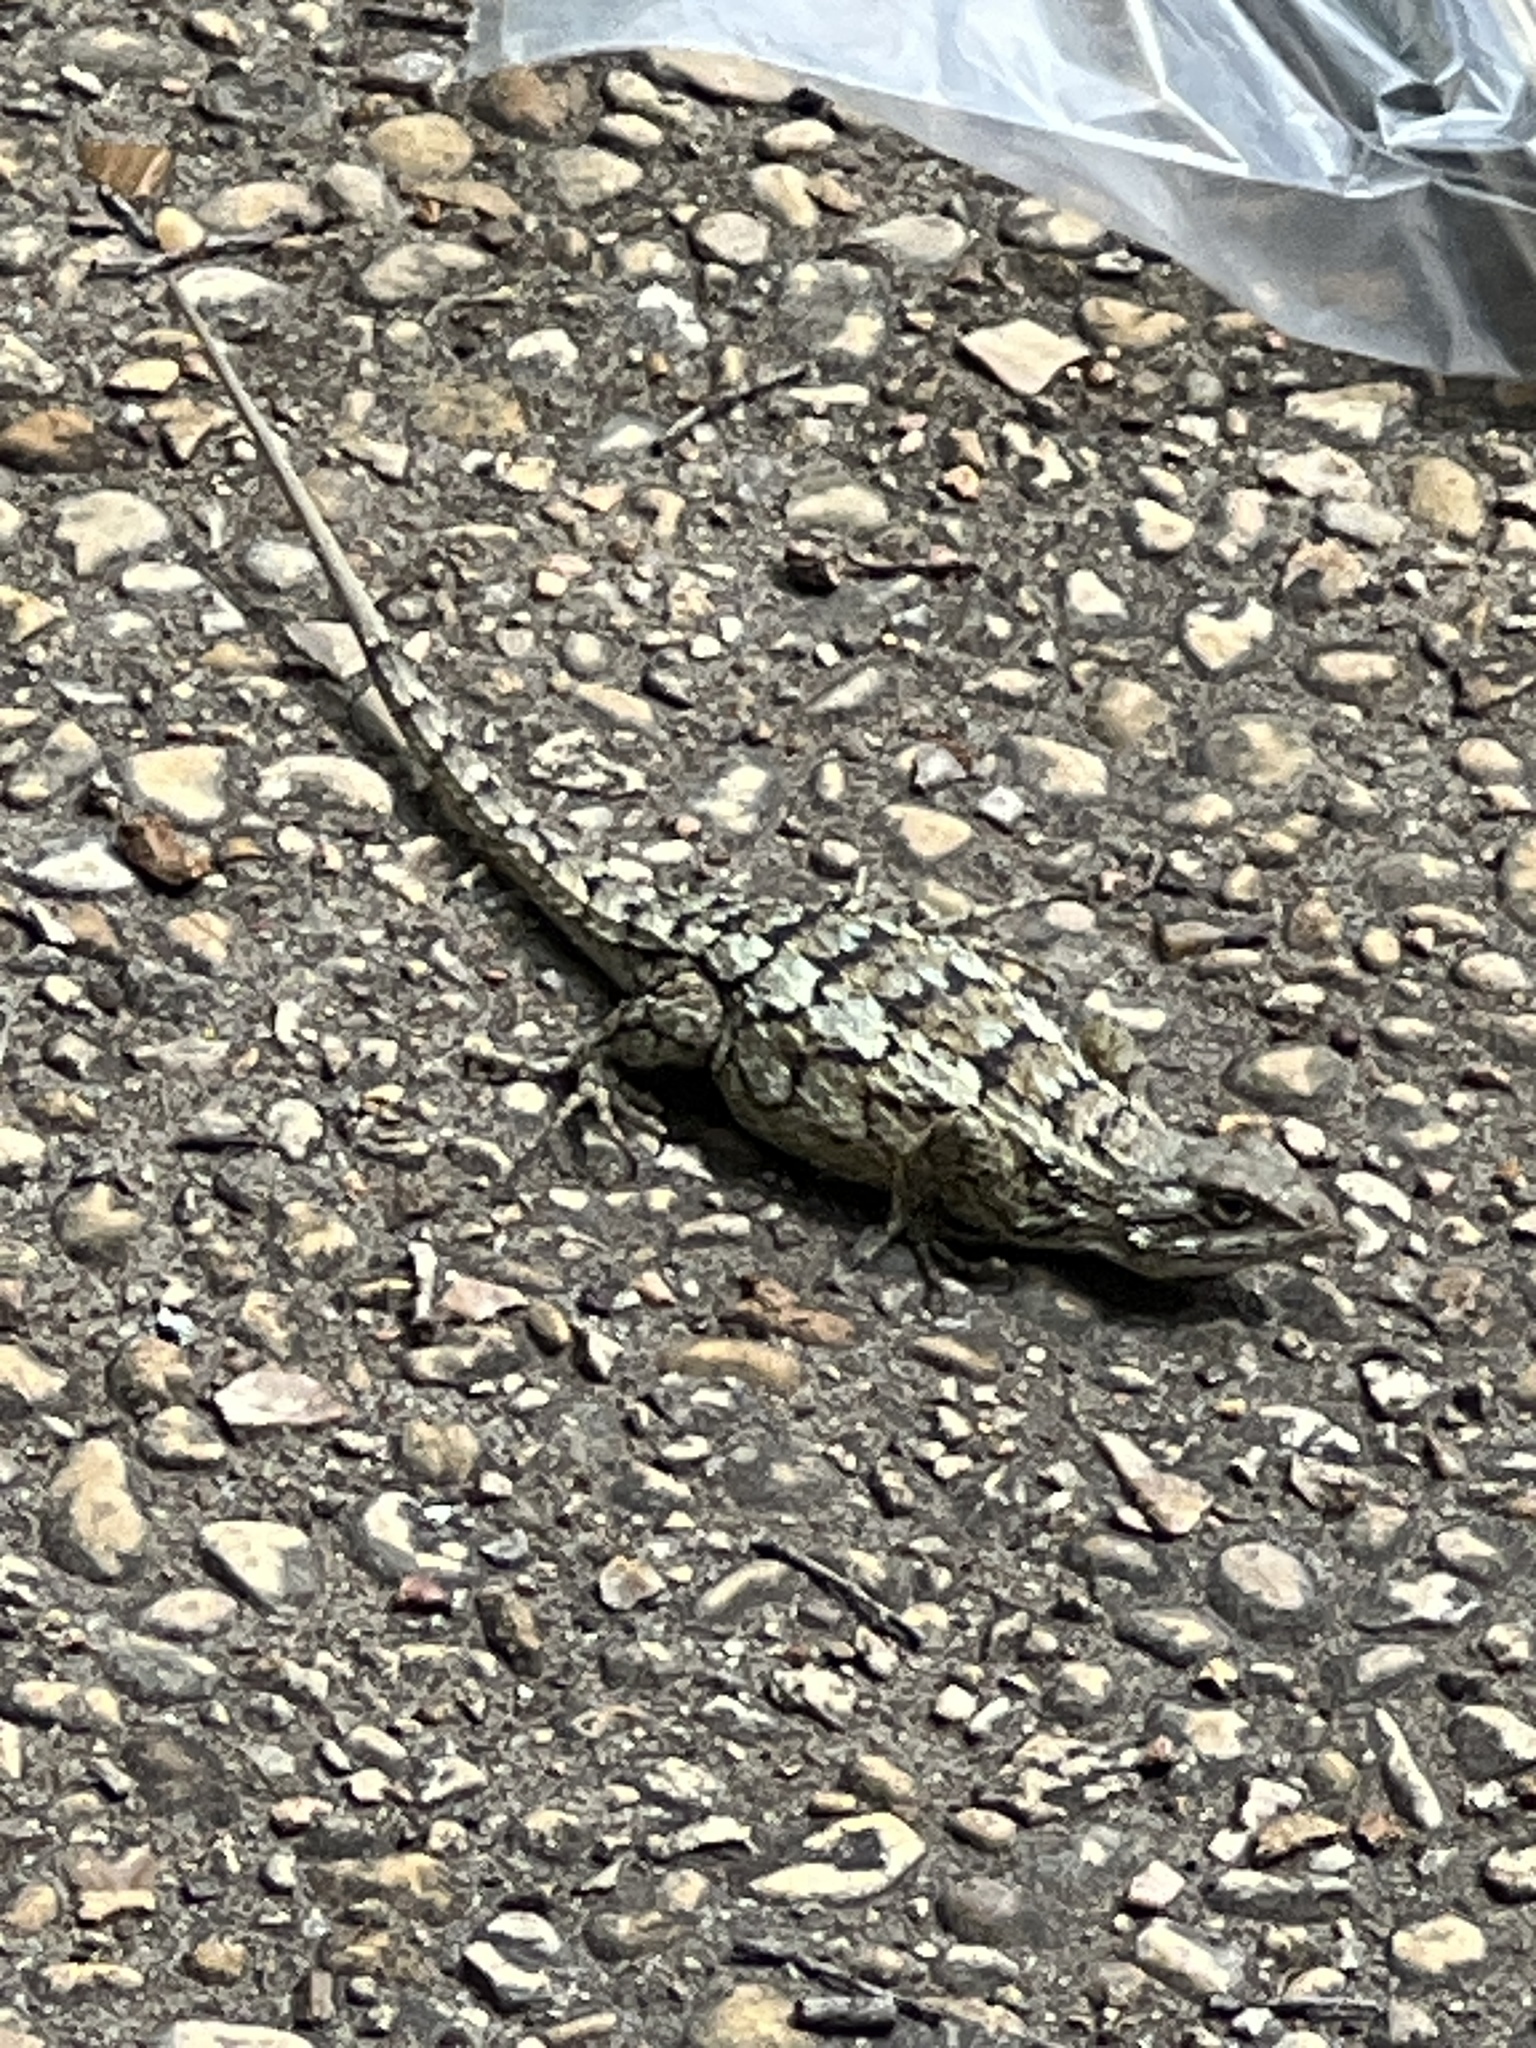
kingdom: Animalia
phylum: Chordata
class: Squamata
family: Phrynosomatidae
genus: Sceloporus
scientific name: Sceloporus olivaceus
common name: Texas spiny lizard
